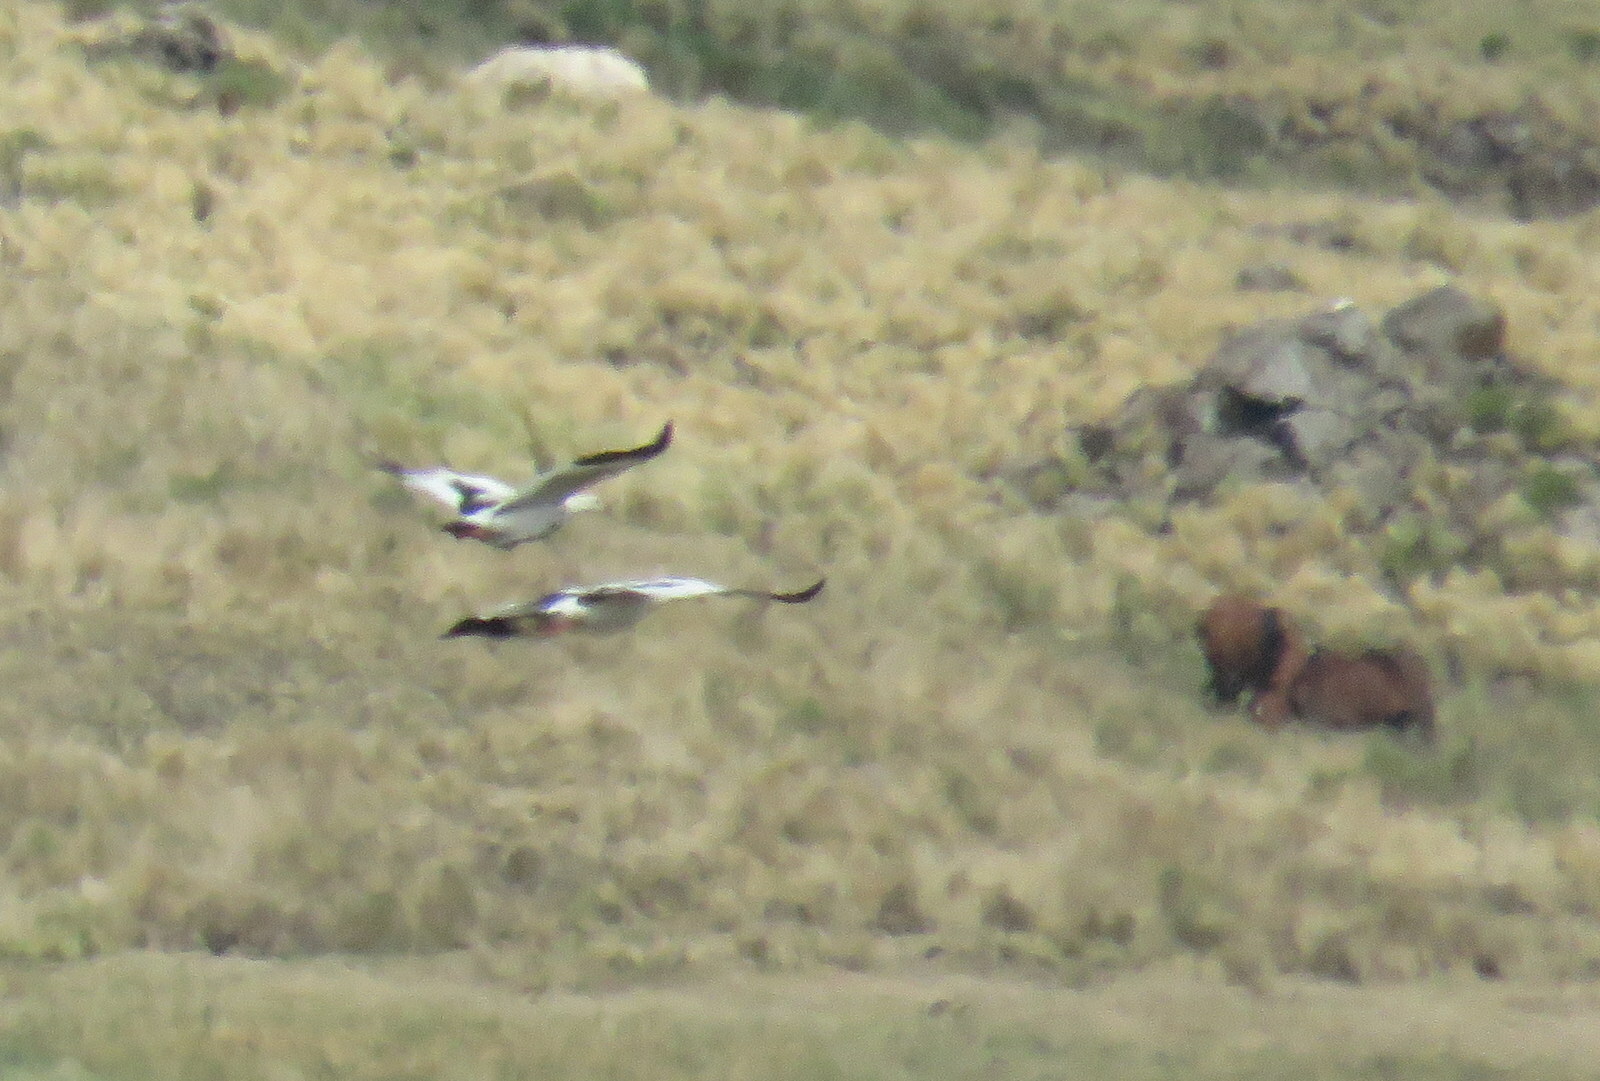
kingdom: Animalia
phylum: Chordata
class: Aves
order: Anseriformes
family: Anatidae
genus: Chloephaga
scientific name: Chloephaga melanoptera
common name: Andean goose
